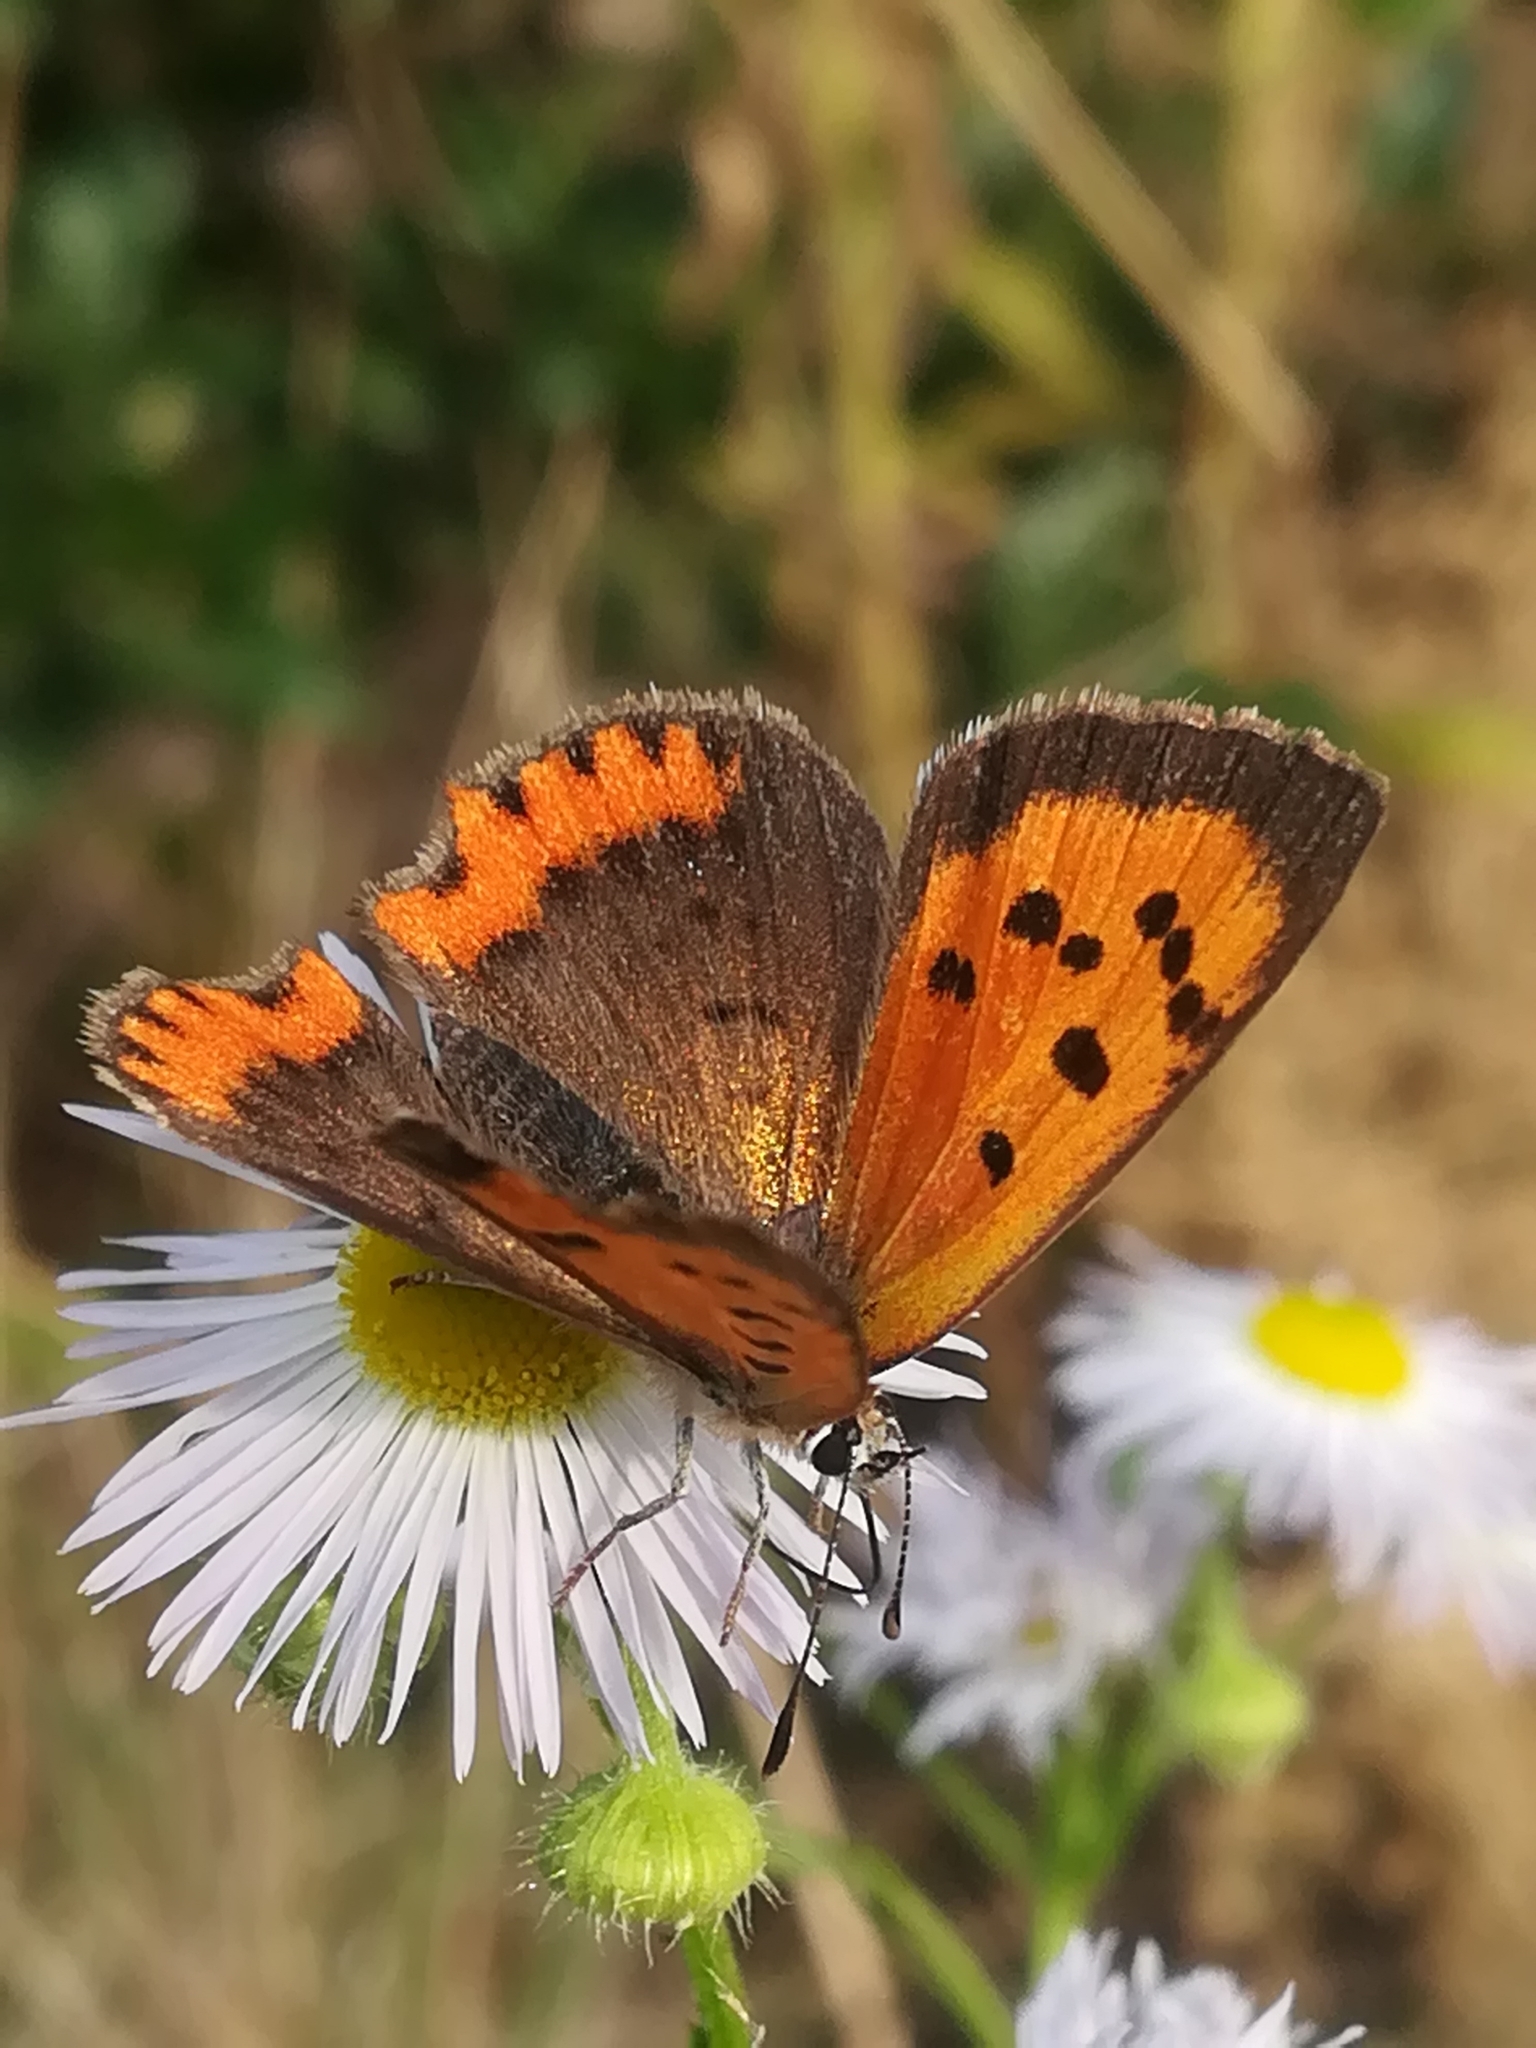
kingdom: Animalia
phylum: Arthropoda
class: Insecta
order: Lepidoptera
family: Lycaenidae
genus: Lycaena
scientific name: Lycaena phlaeas
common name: Small copper
